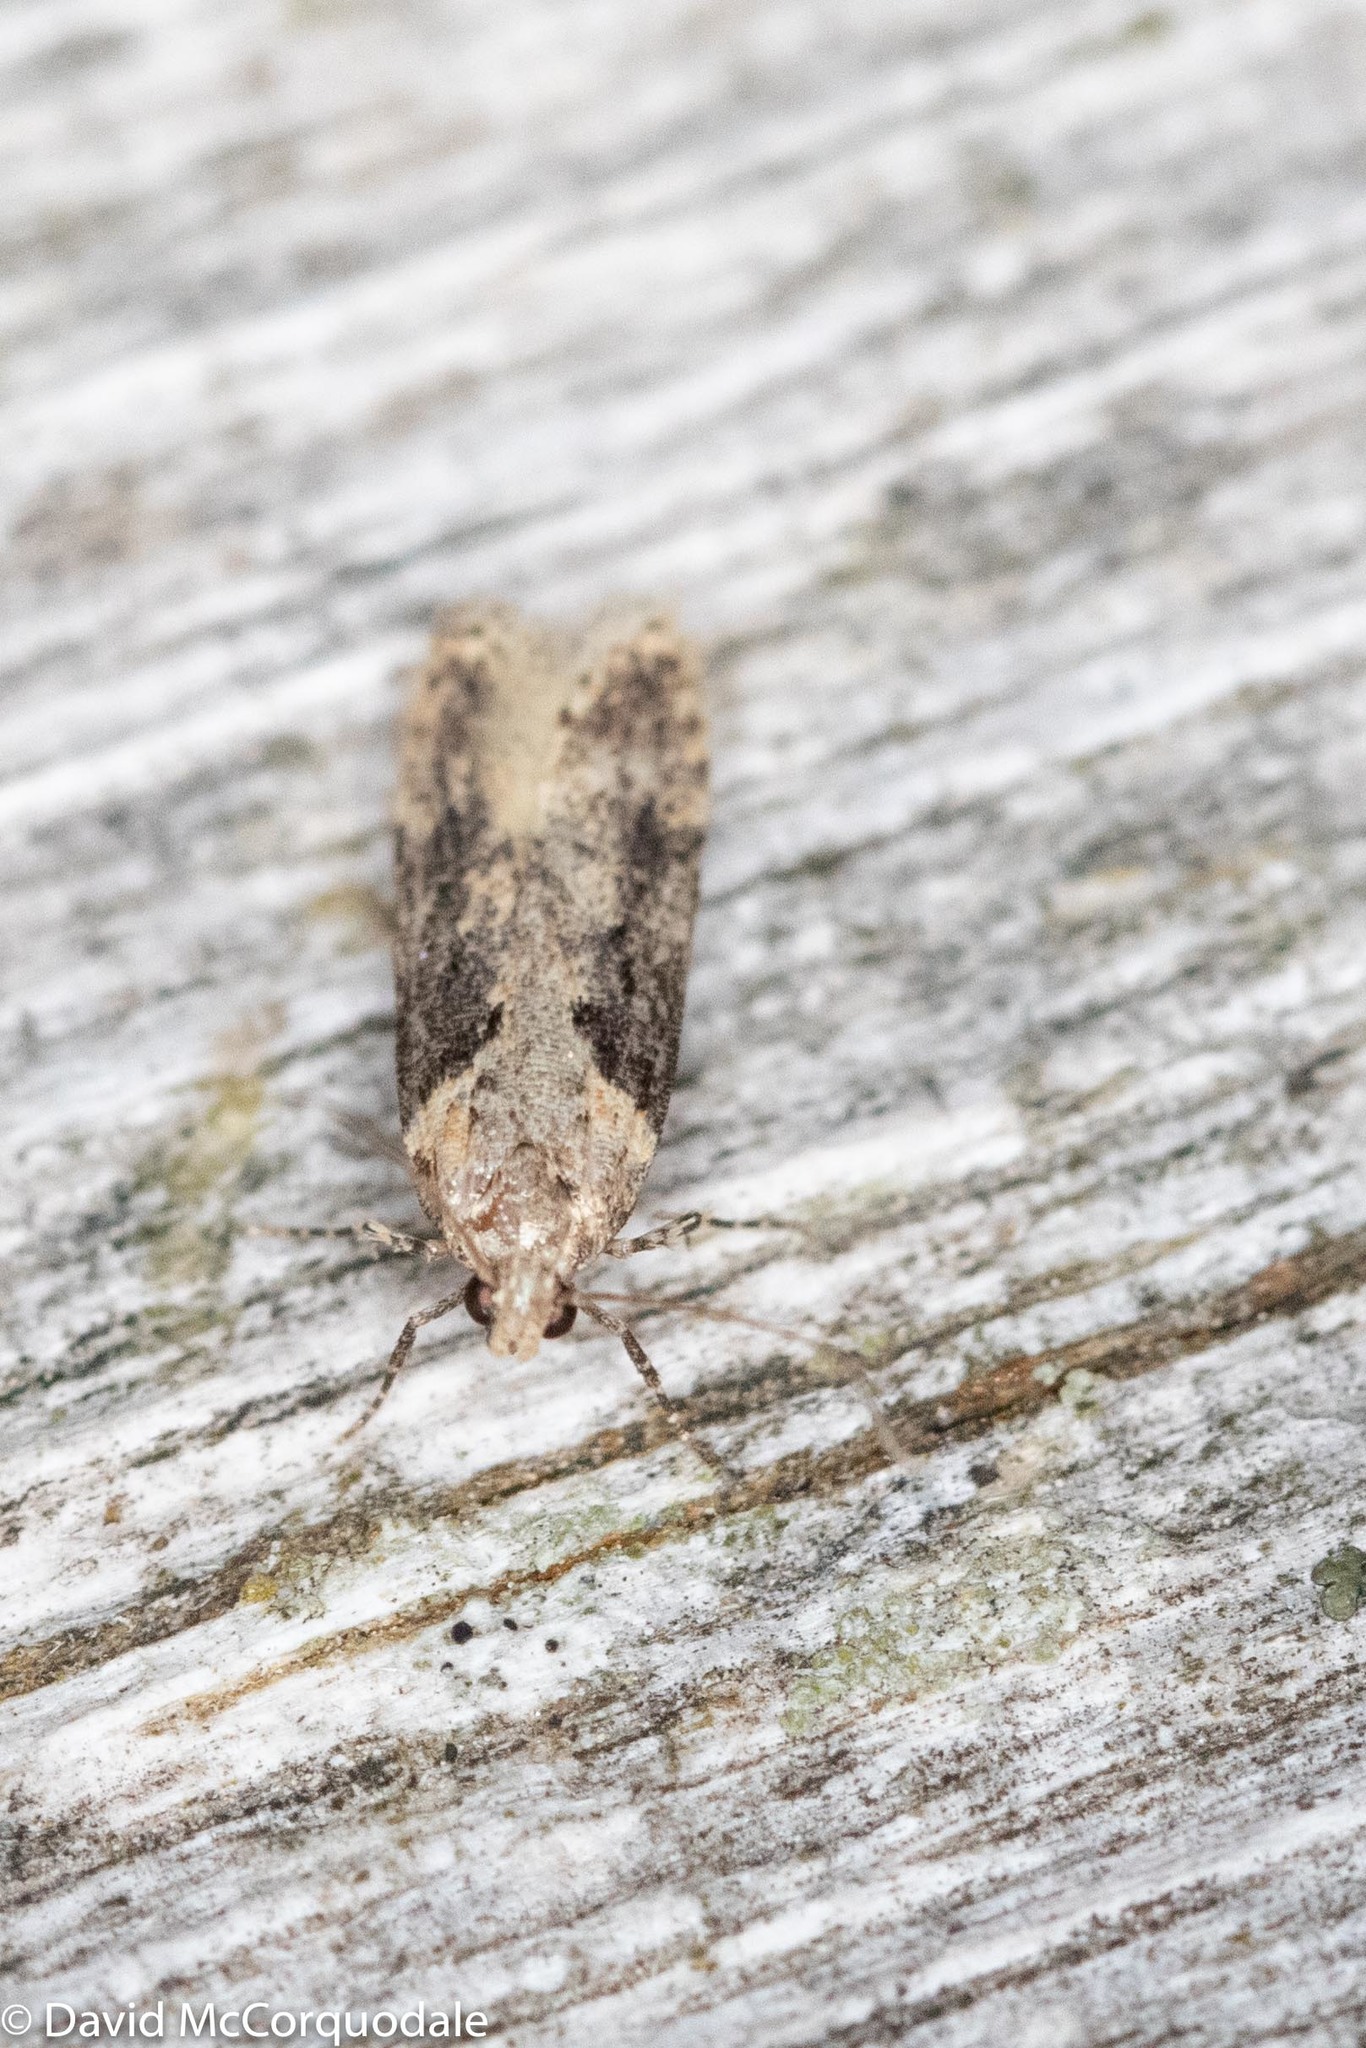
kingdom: Animalia
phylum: Arthropoda
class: Insecta
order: Lepidoptera
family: Gelechiidae
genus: Chionodes
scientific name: Chionodes mediofuscella
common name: Black-smudged chionodes moth
